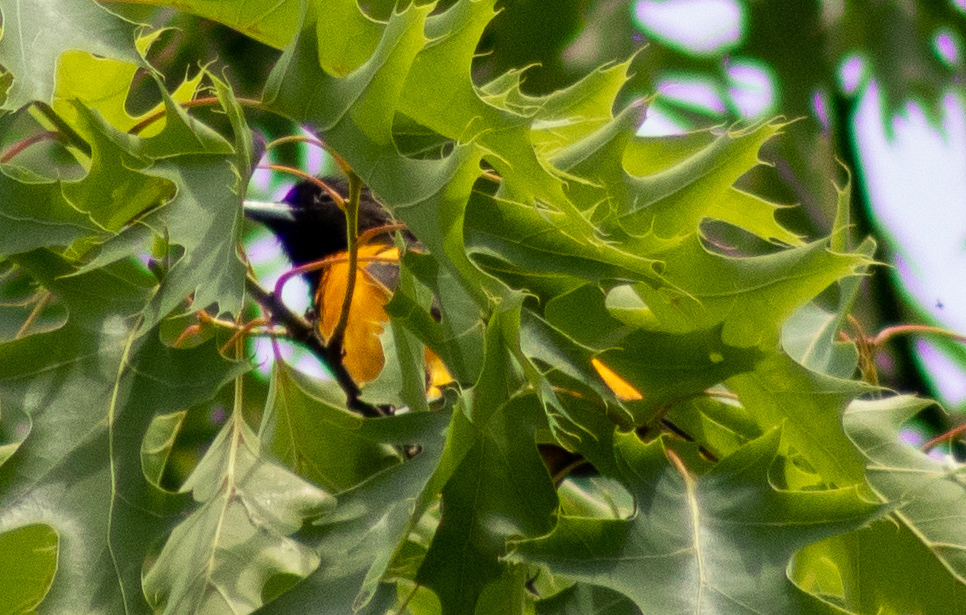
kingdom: Animalia
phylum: Chordata
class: Aves
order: Passeriformes
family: Icteridae
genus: Icterus
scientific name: Icterus galbula
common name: Baltimore oriole
